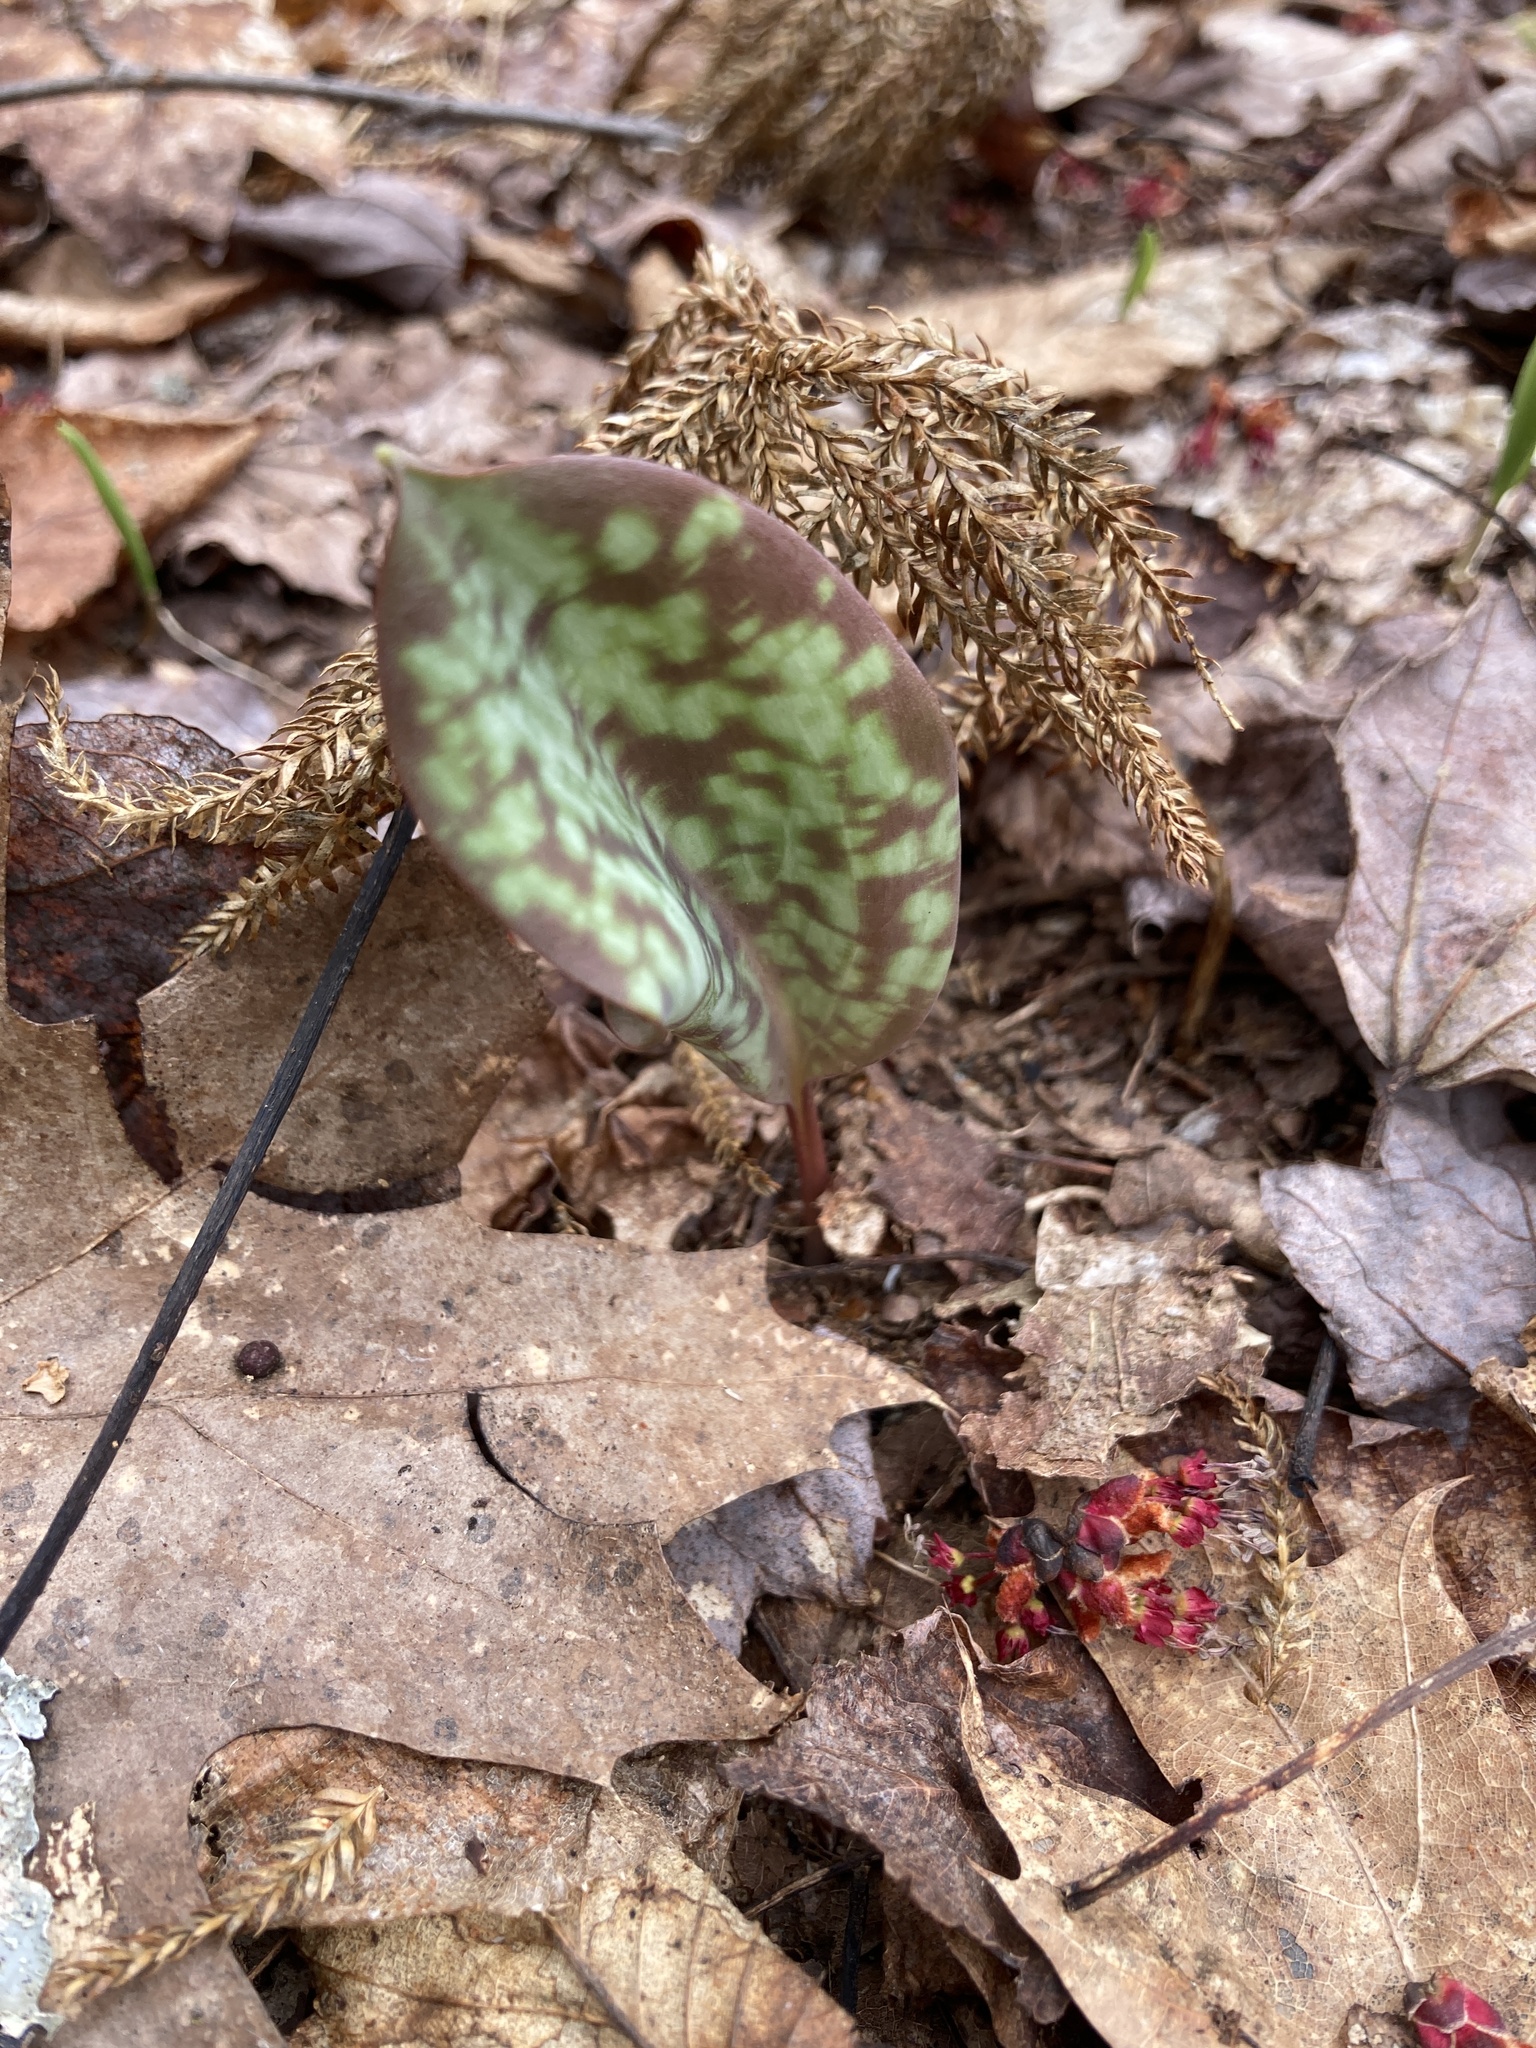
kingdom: Plantae
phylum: Tracheophyta
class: Liliopsida
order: Liliales
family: Liliaceae
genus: Erythronium
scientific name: Erythronium americanum
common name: Yellow adder's-tongue
